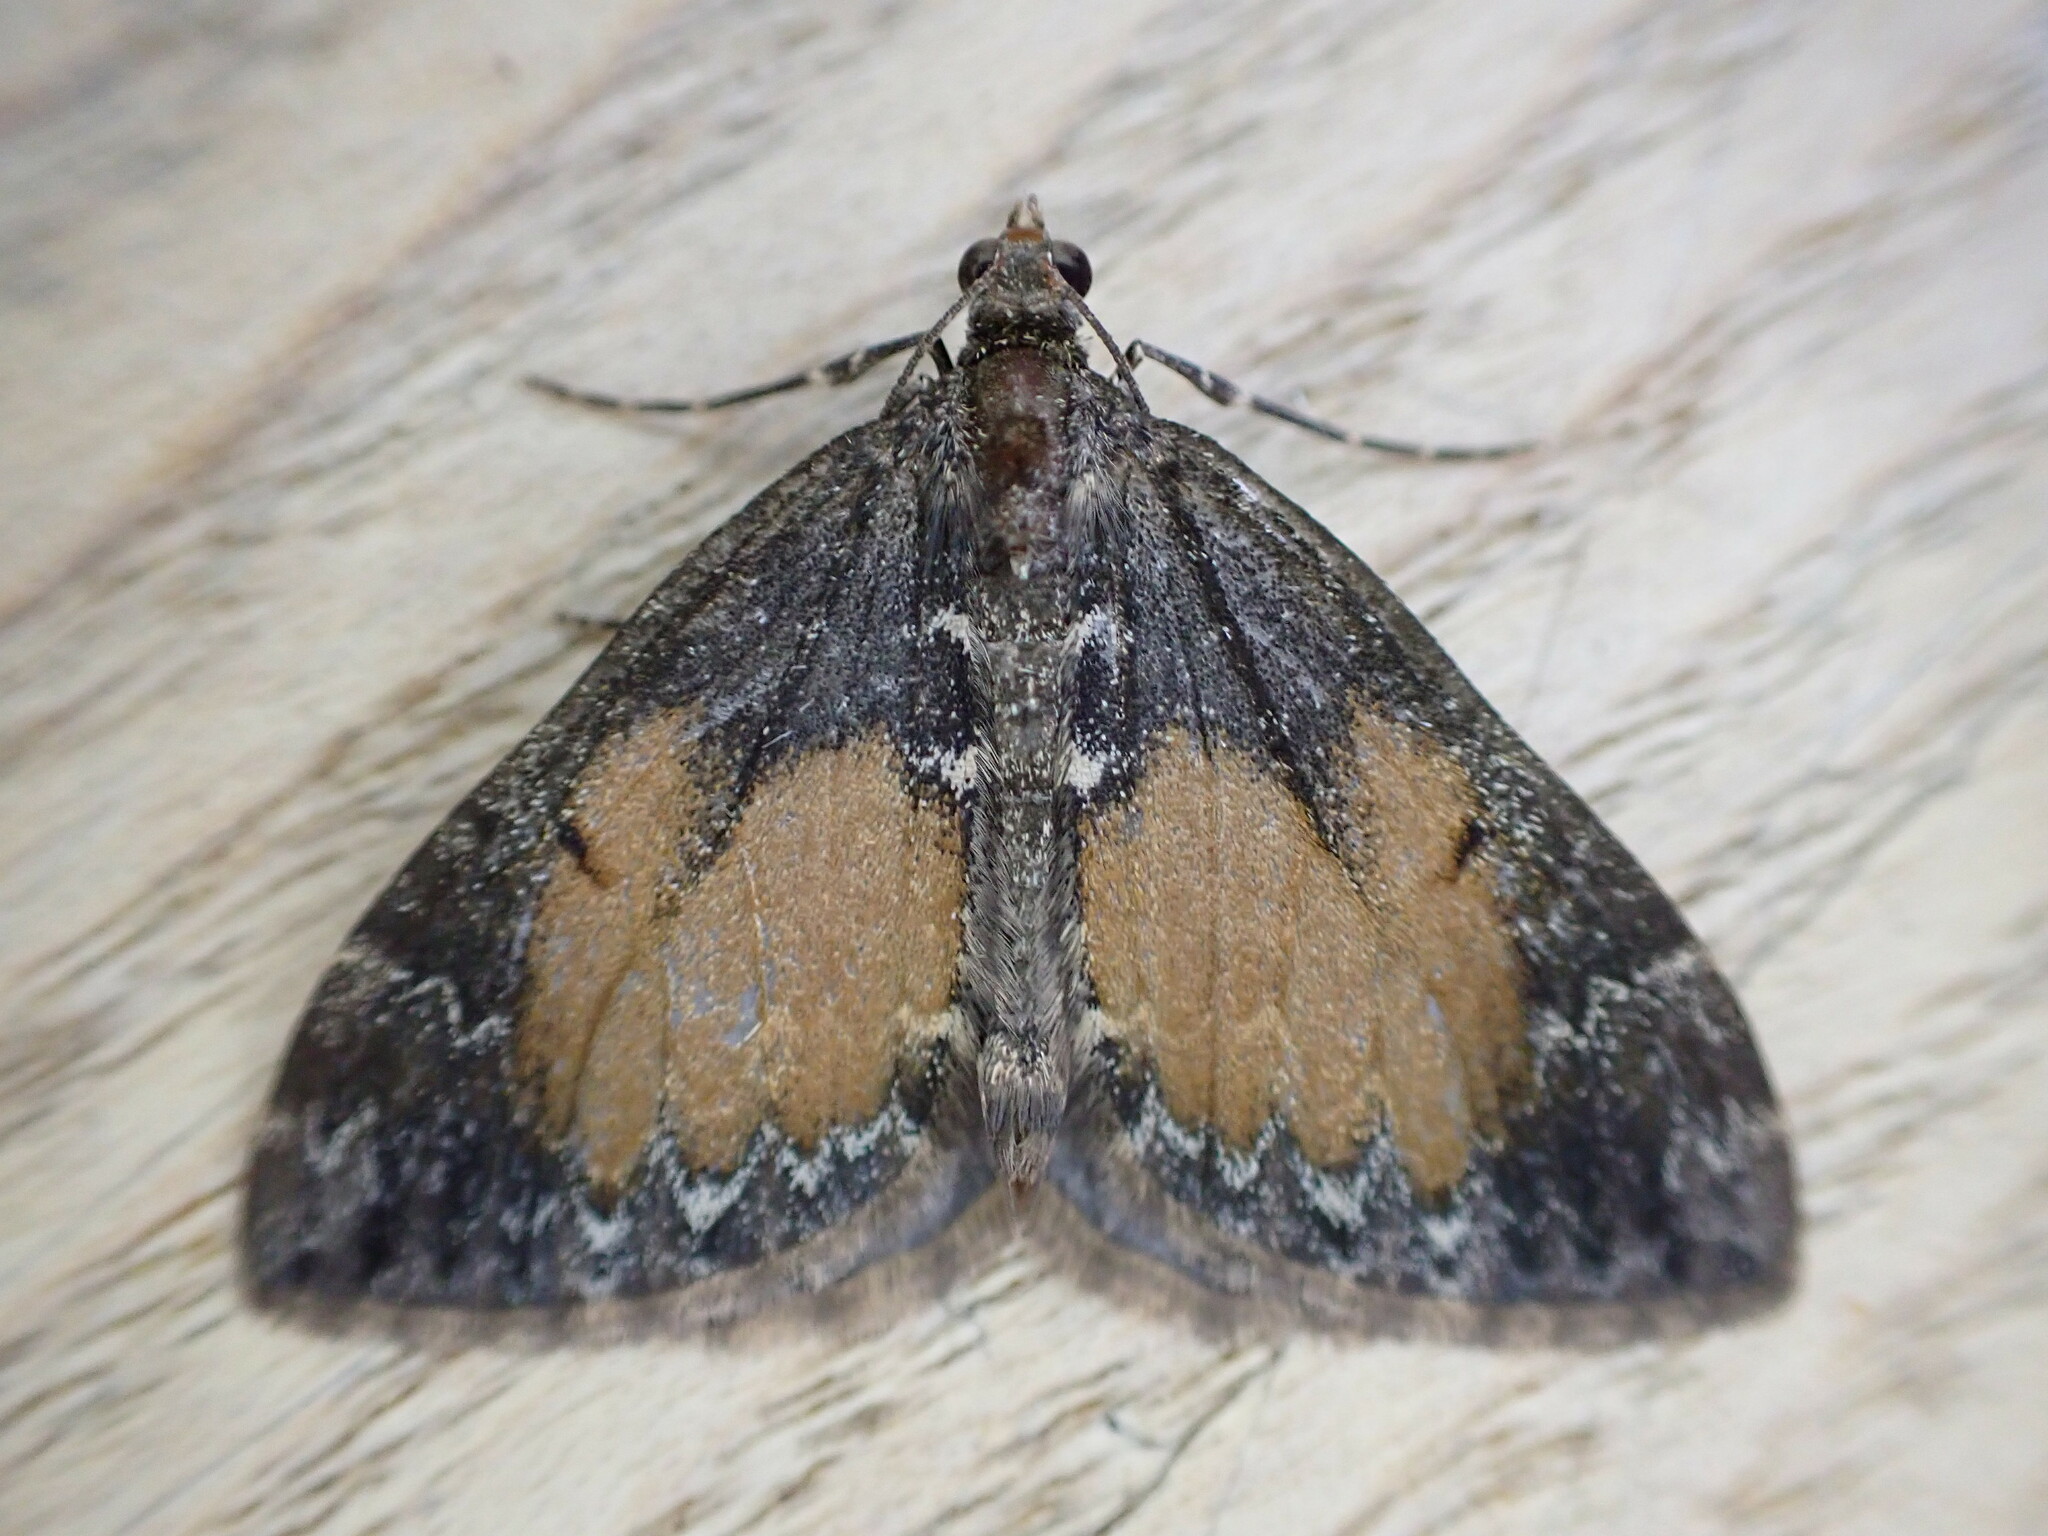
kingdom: Animalia
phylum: Arthropoda
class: Insecta
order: Lepidoptera
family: Geometridae
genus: Dysstroma
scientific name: Dysstroma truncata
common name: Common marbled carpet
